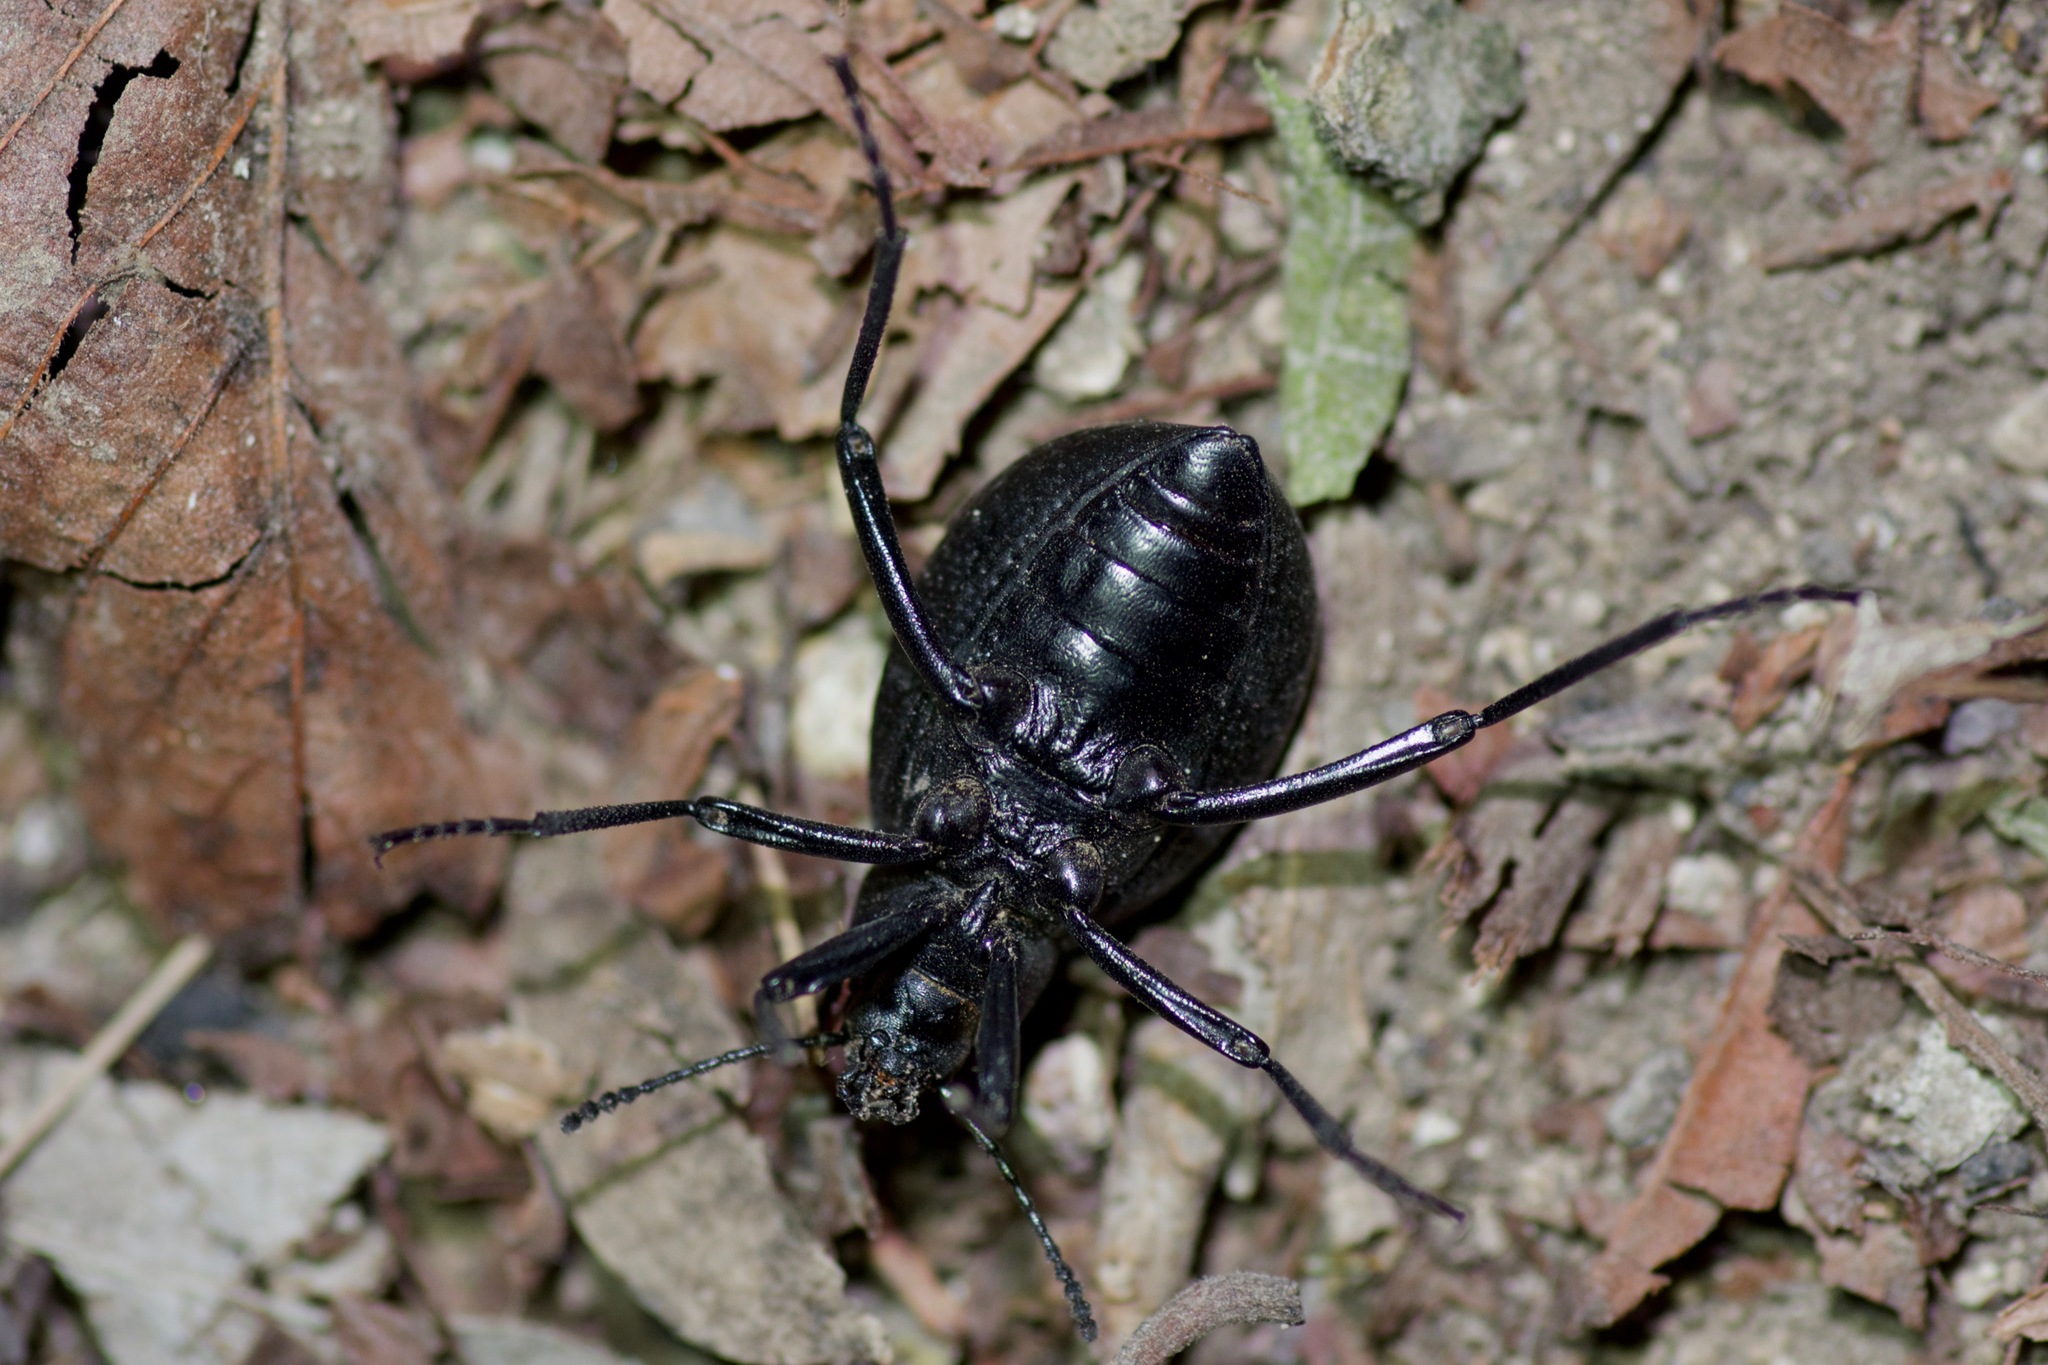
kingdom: Animalia
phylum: Arthropoda
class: Insecta
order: Coleoptera
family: Tenebrionidae
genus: Eleodes
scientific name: Eleodes goryi
